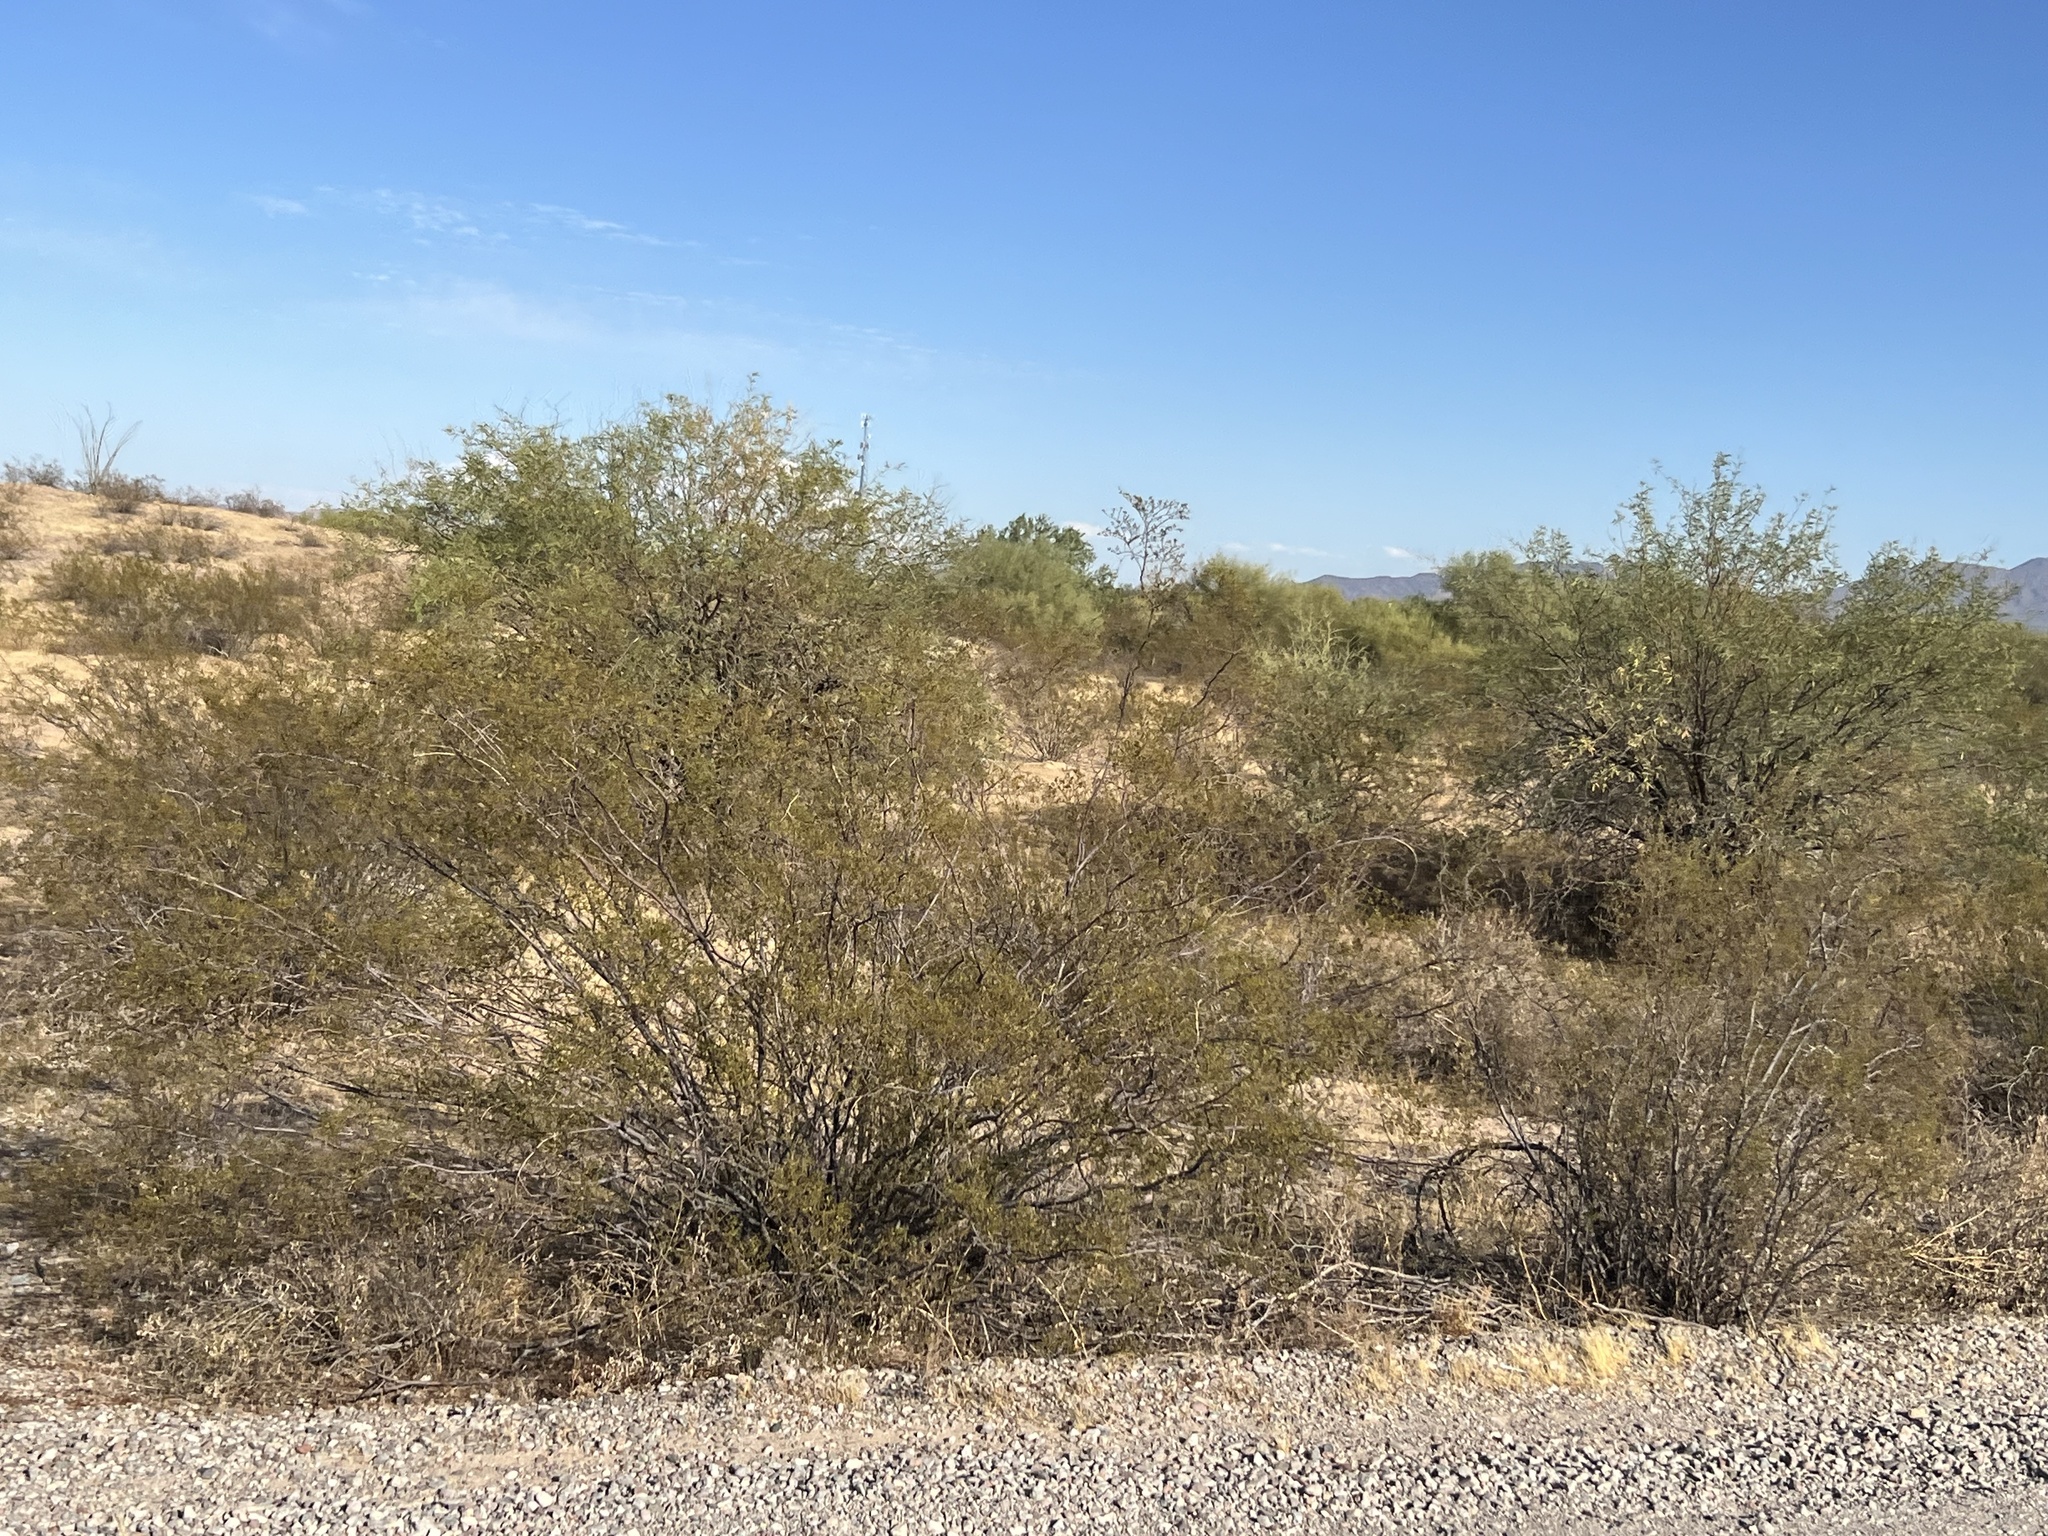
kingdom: Plantae
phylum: Tracheophyta
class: Magnoliopsida
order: Zygophyllales
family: Zygophyllaceae
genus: Larrea
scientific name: Larrea tridentata
